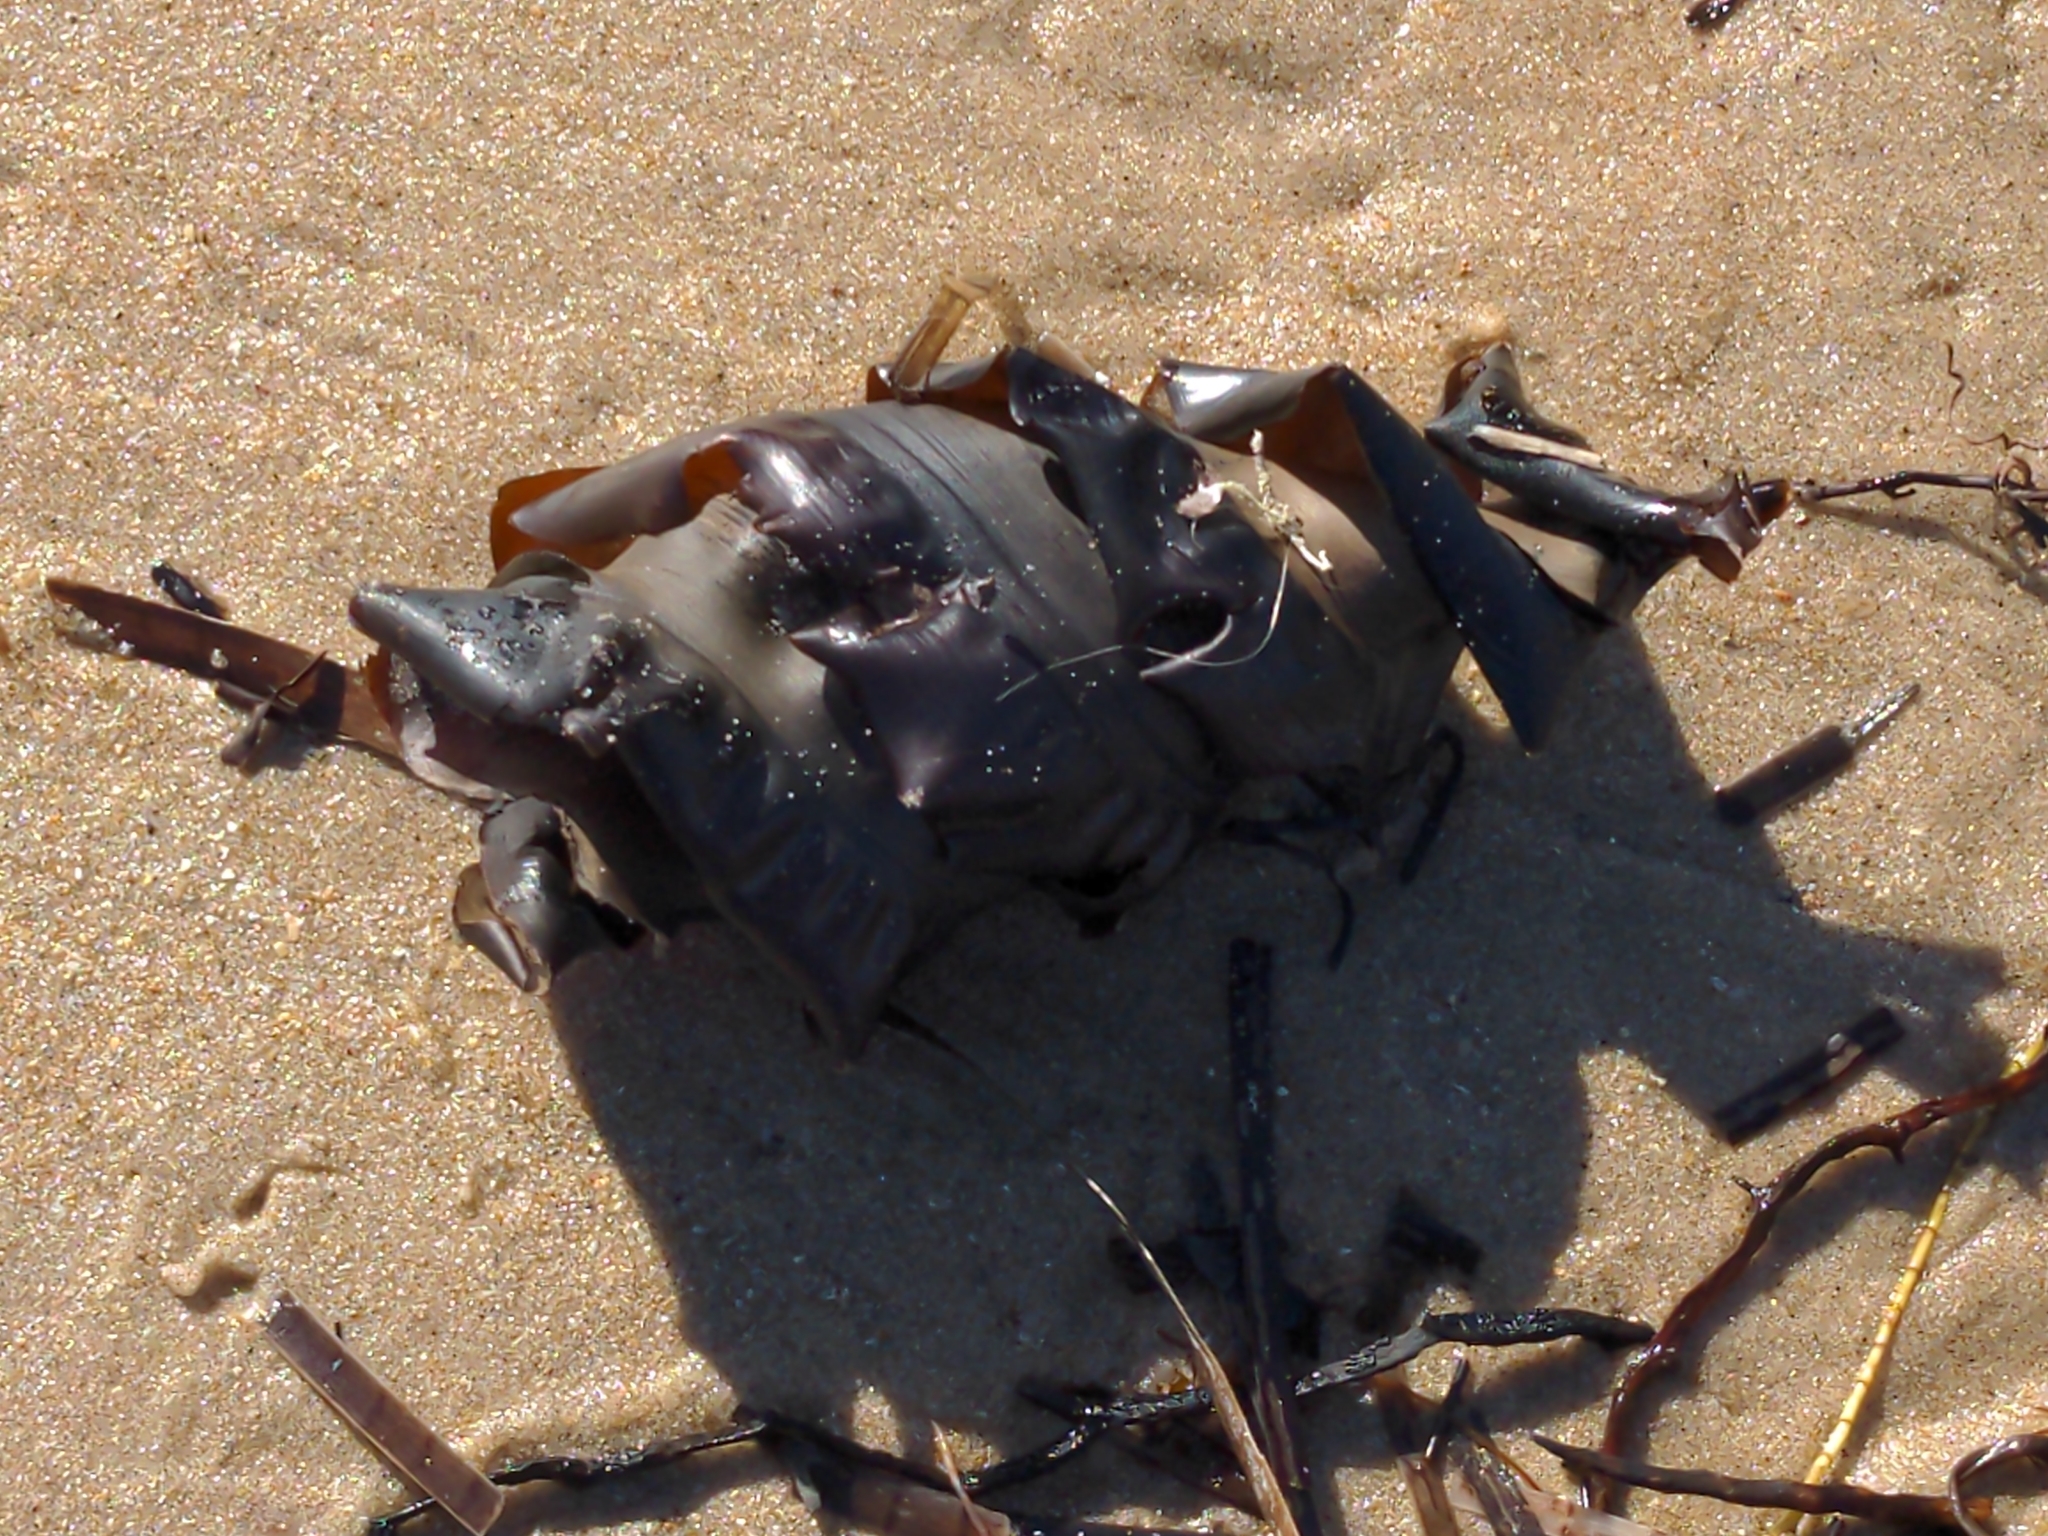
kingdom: Animalia
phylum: Chordata
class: Elasmobranchii
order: Heterodontiformes
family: Heterodontidae
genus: Heterodontus
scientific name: Heterodontus portusjacksoni
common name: Port jackson shark
